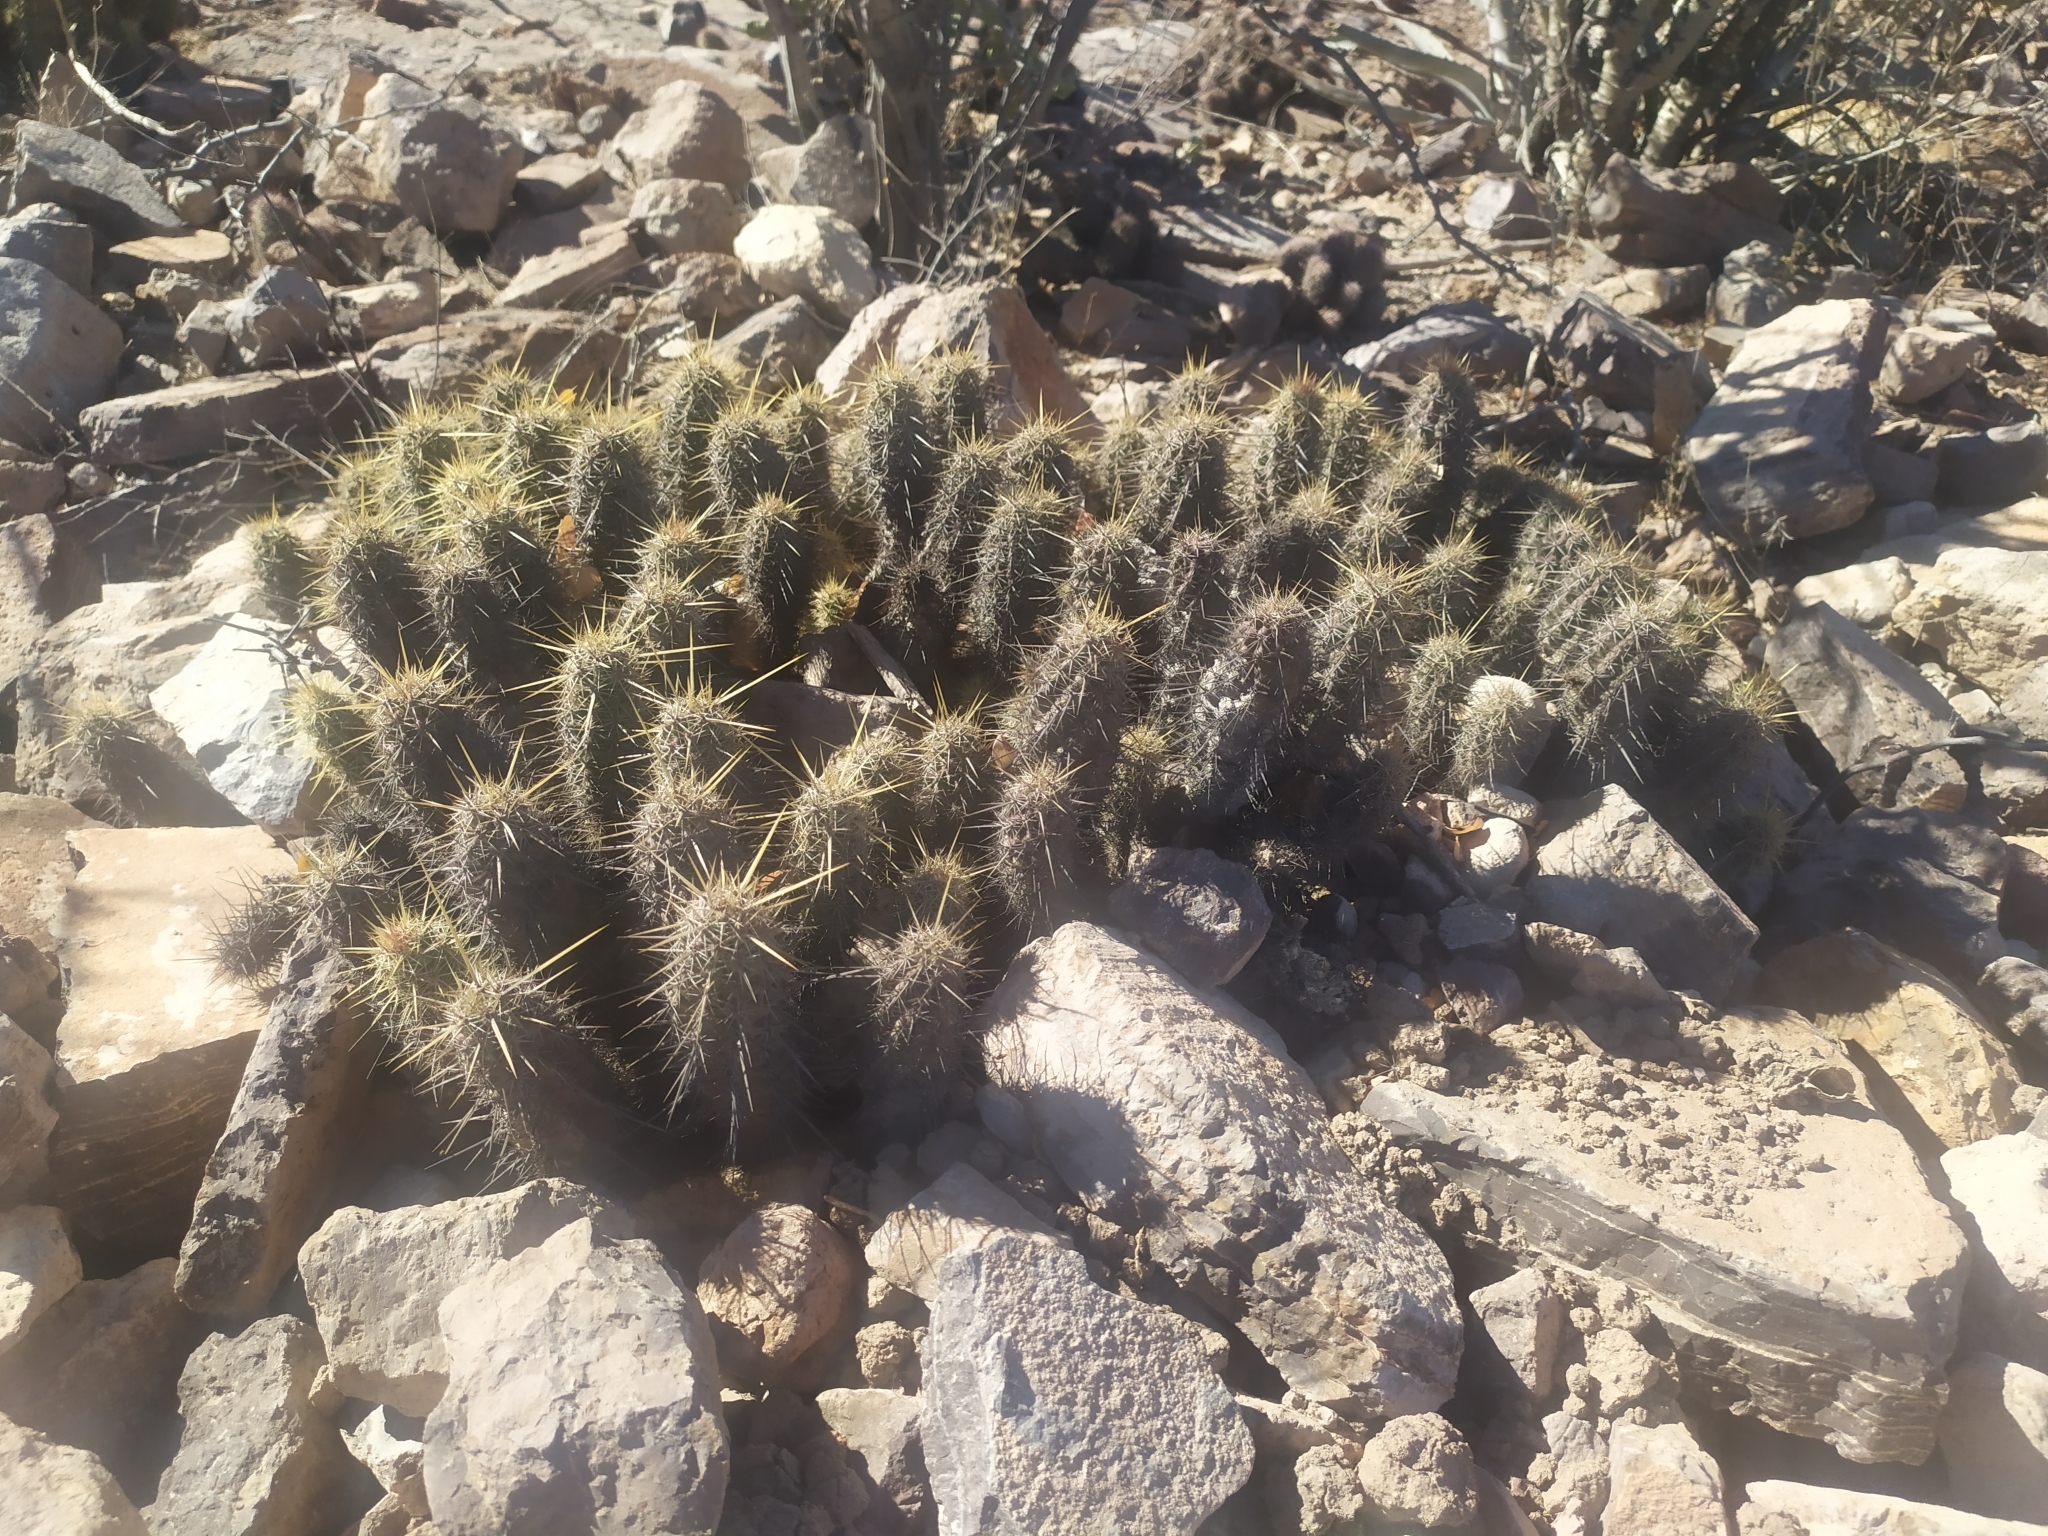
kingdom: Plantae
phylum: Tracheophyta
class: Magnoliopsida
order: Caryophyllales
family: Cactaceae
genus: Echinocereus
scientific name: Echinocereus brandegeei
